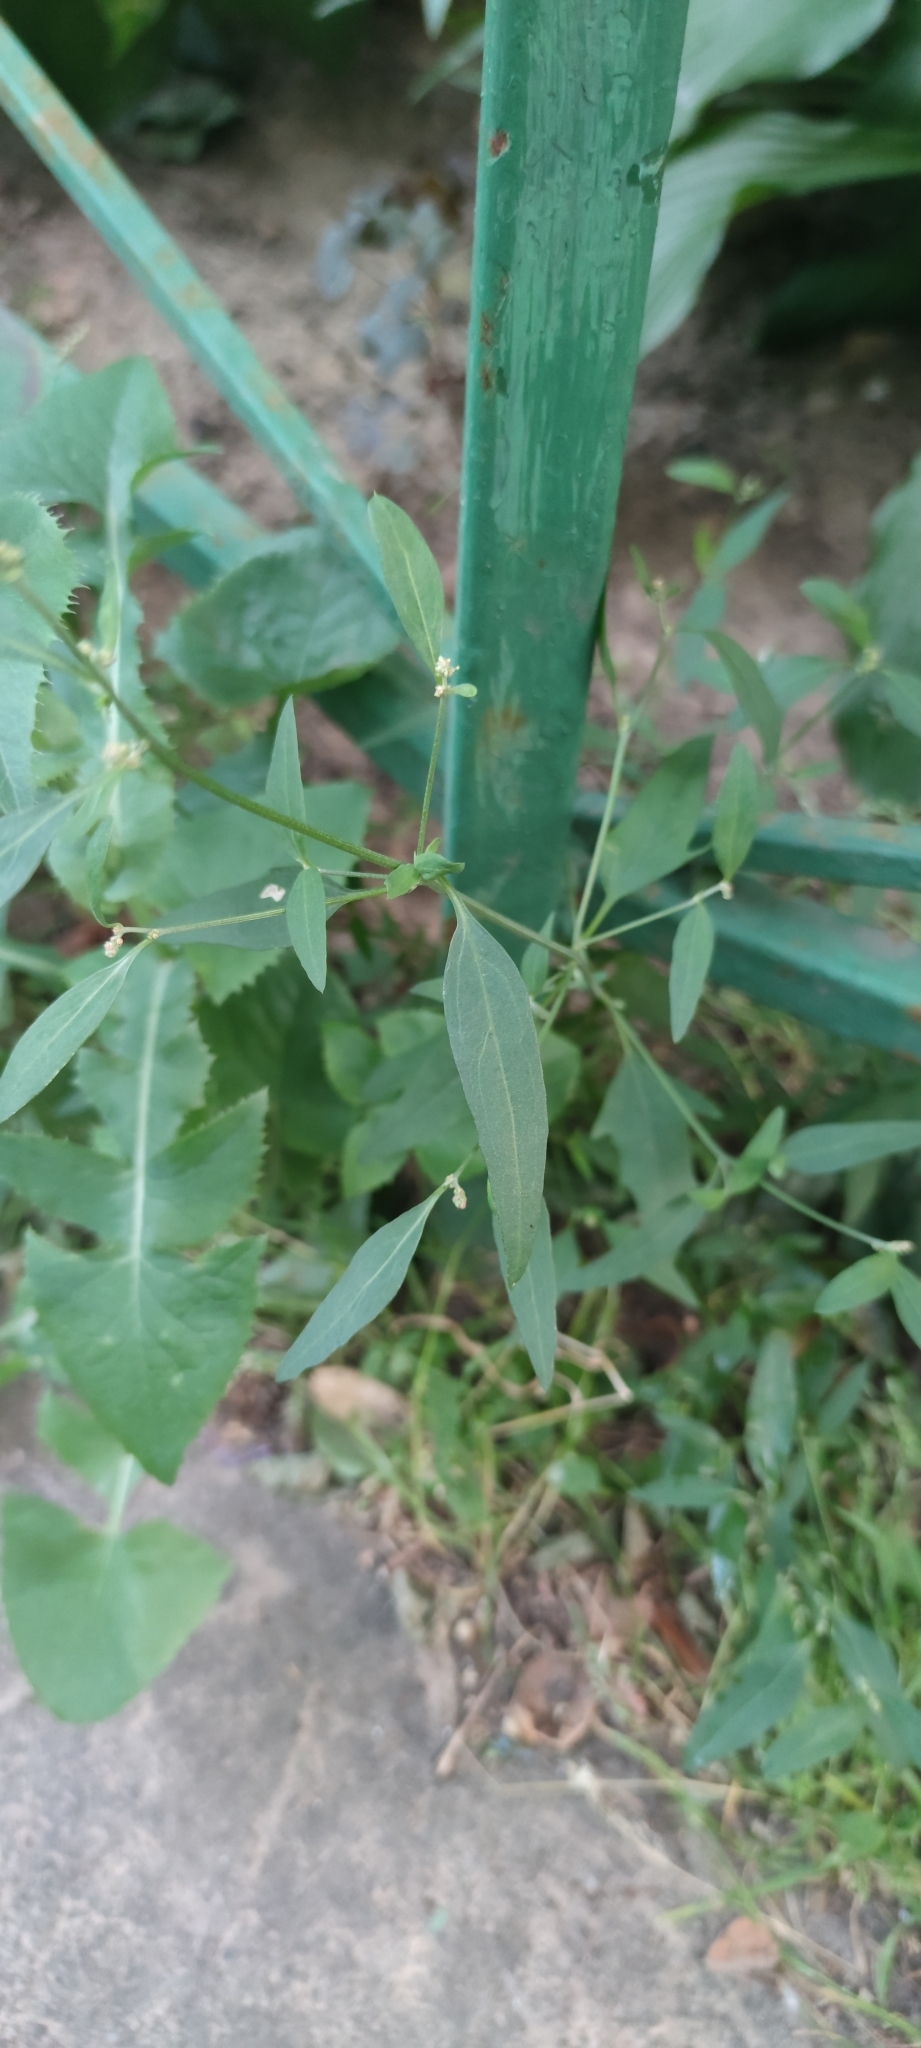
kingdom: Plantae
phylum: Tracheophyta
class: Magnoliopsida
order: Caryophyllales
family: Amaranthaceae
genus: Atriplex
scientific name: Atriplex patula
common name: Common orache
